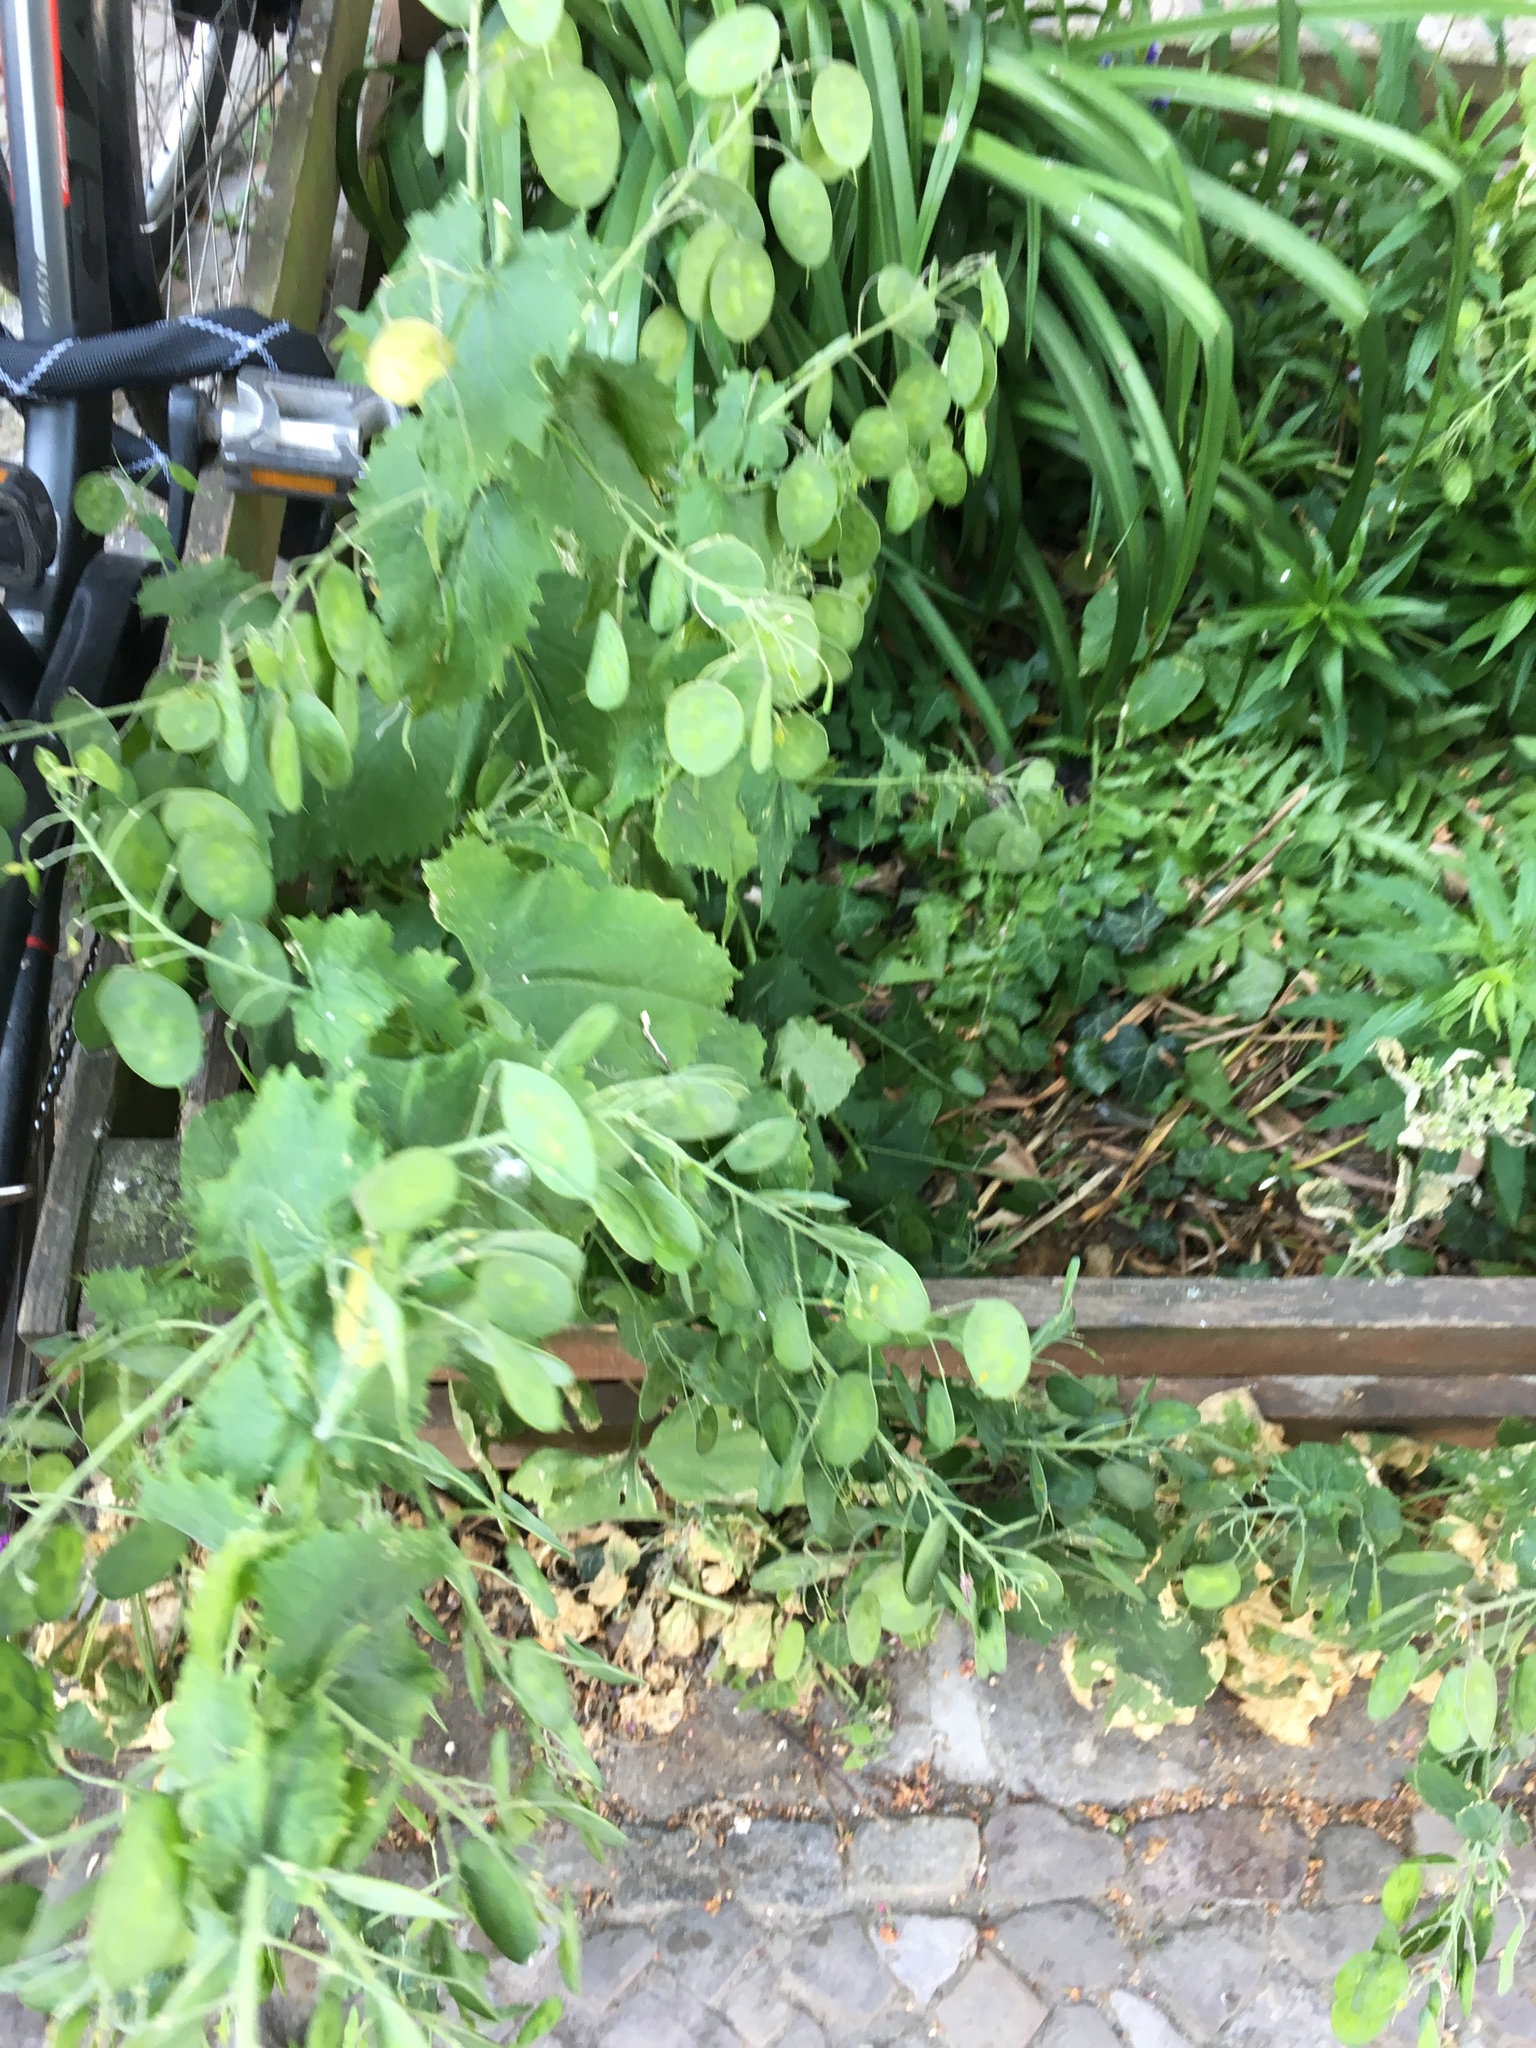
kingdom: Plantae
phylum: Tracheophyta
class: Magnoliopsida
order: Brassicales
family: Brassicaceae
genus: Lunaria
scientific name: Lunaria annua
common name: Honesty
